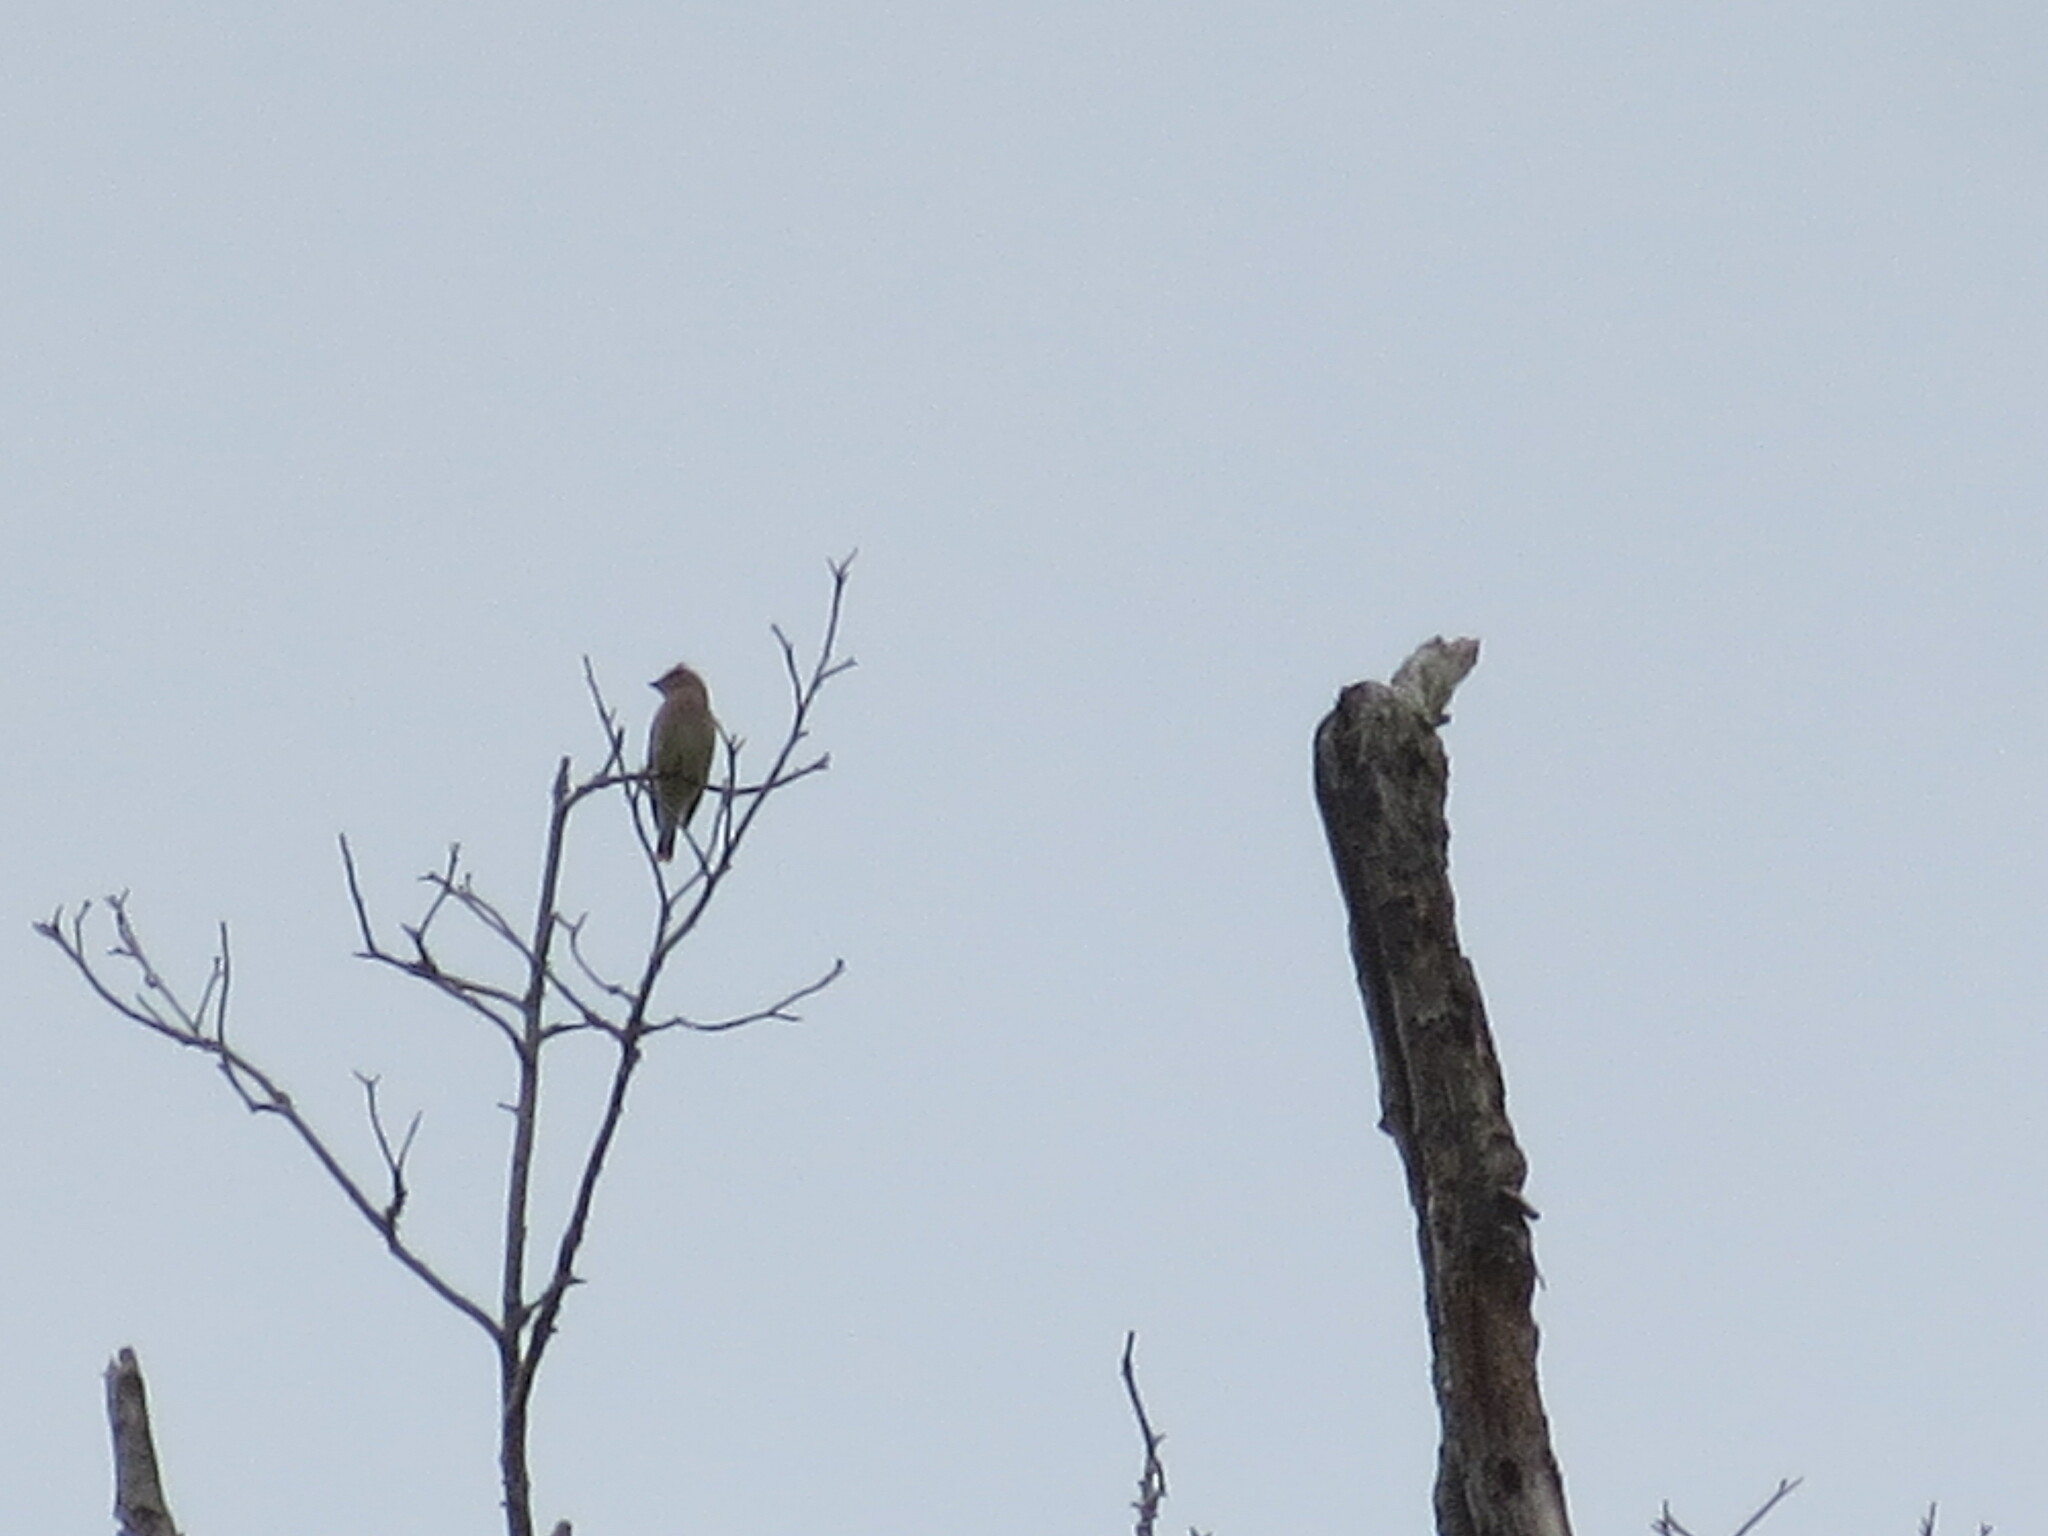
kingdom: Animalia
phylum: Chordata
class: Aves
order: Passeriformes
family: Bombycillidae
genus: Bombycilla
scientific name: Bombycilla cedrorum
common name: Cedar waxwing
